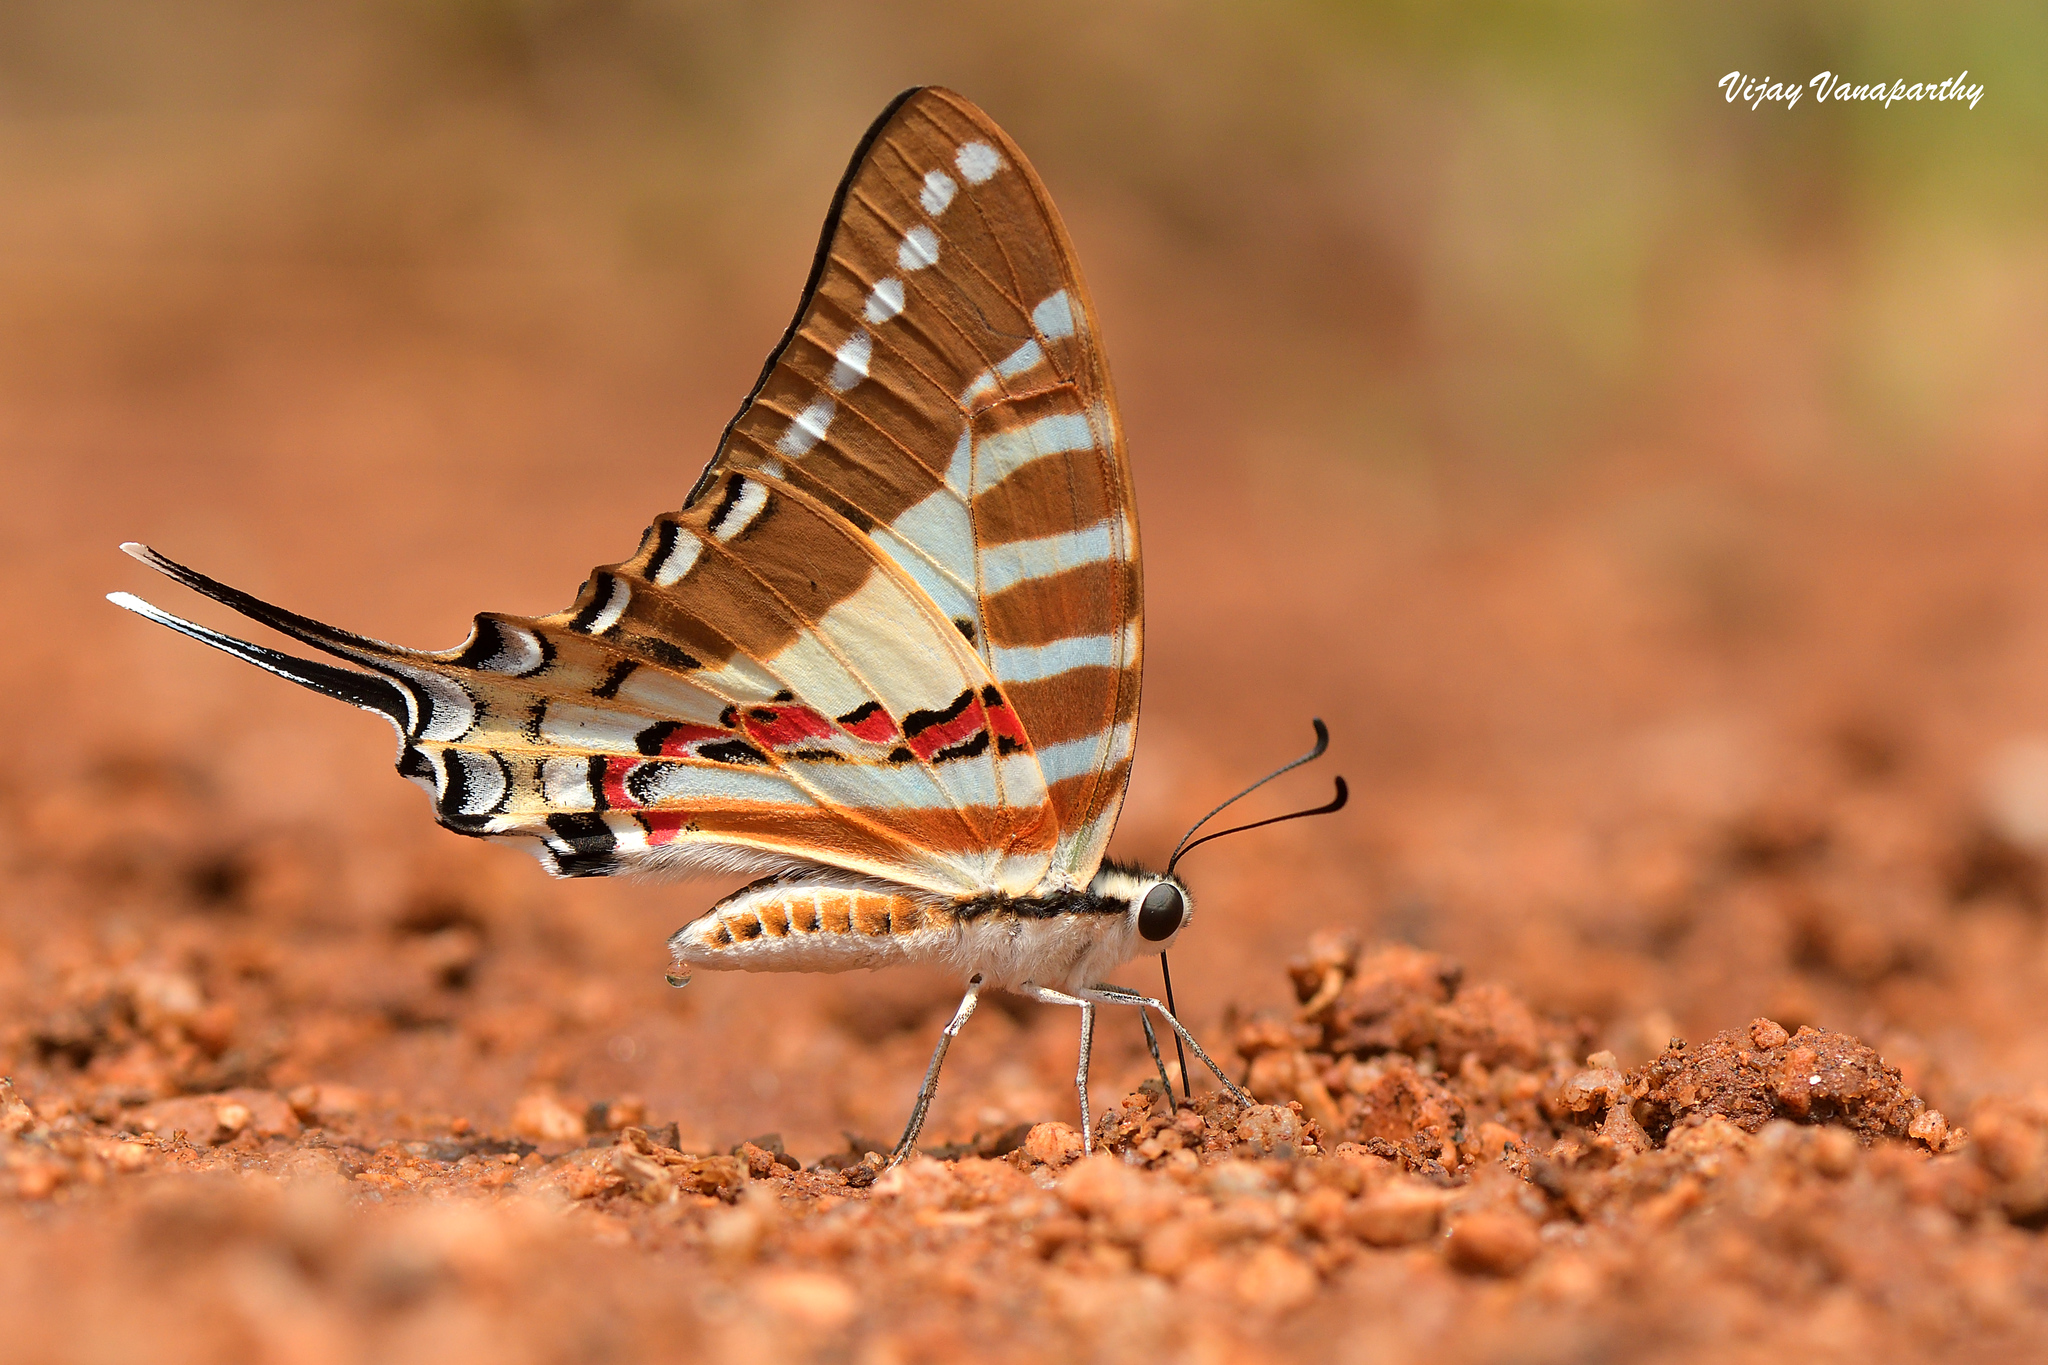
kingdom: Animalia
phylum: Arthropoda
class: Insecta
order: Lepidoptera
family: Papilionidae
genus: Graphium
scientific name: Graphium nomius
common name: Spot swordtail
